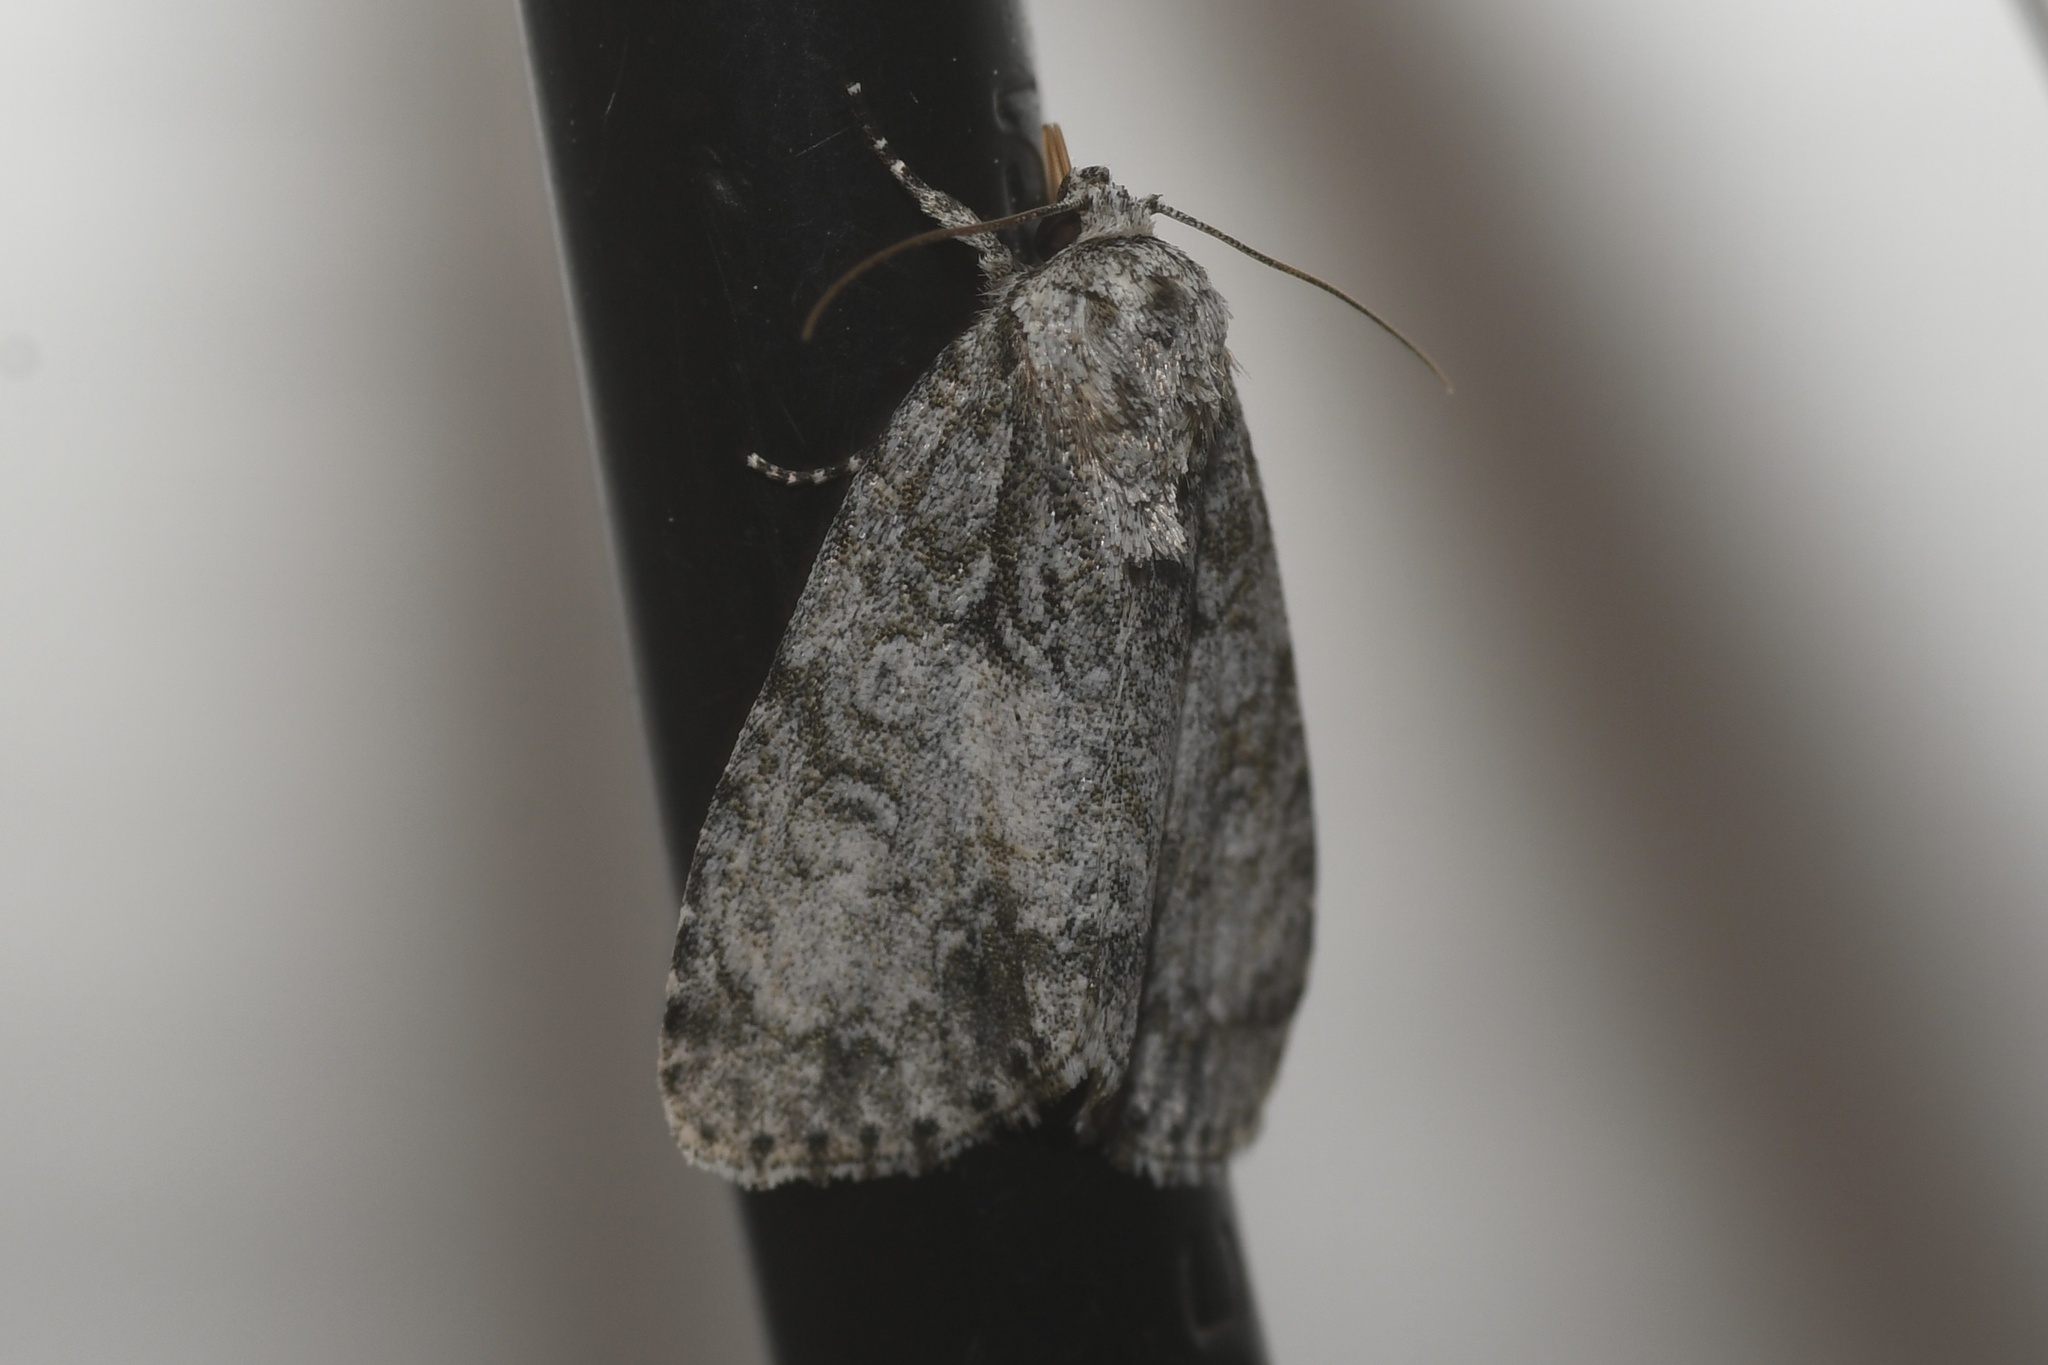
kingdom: Animalia
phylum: Arthropoda
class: Insecta
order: Lepidoptera
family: Noctuidae
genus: Acronicta
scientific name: Acronicta retardata
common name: Maple dagger
